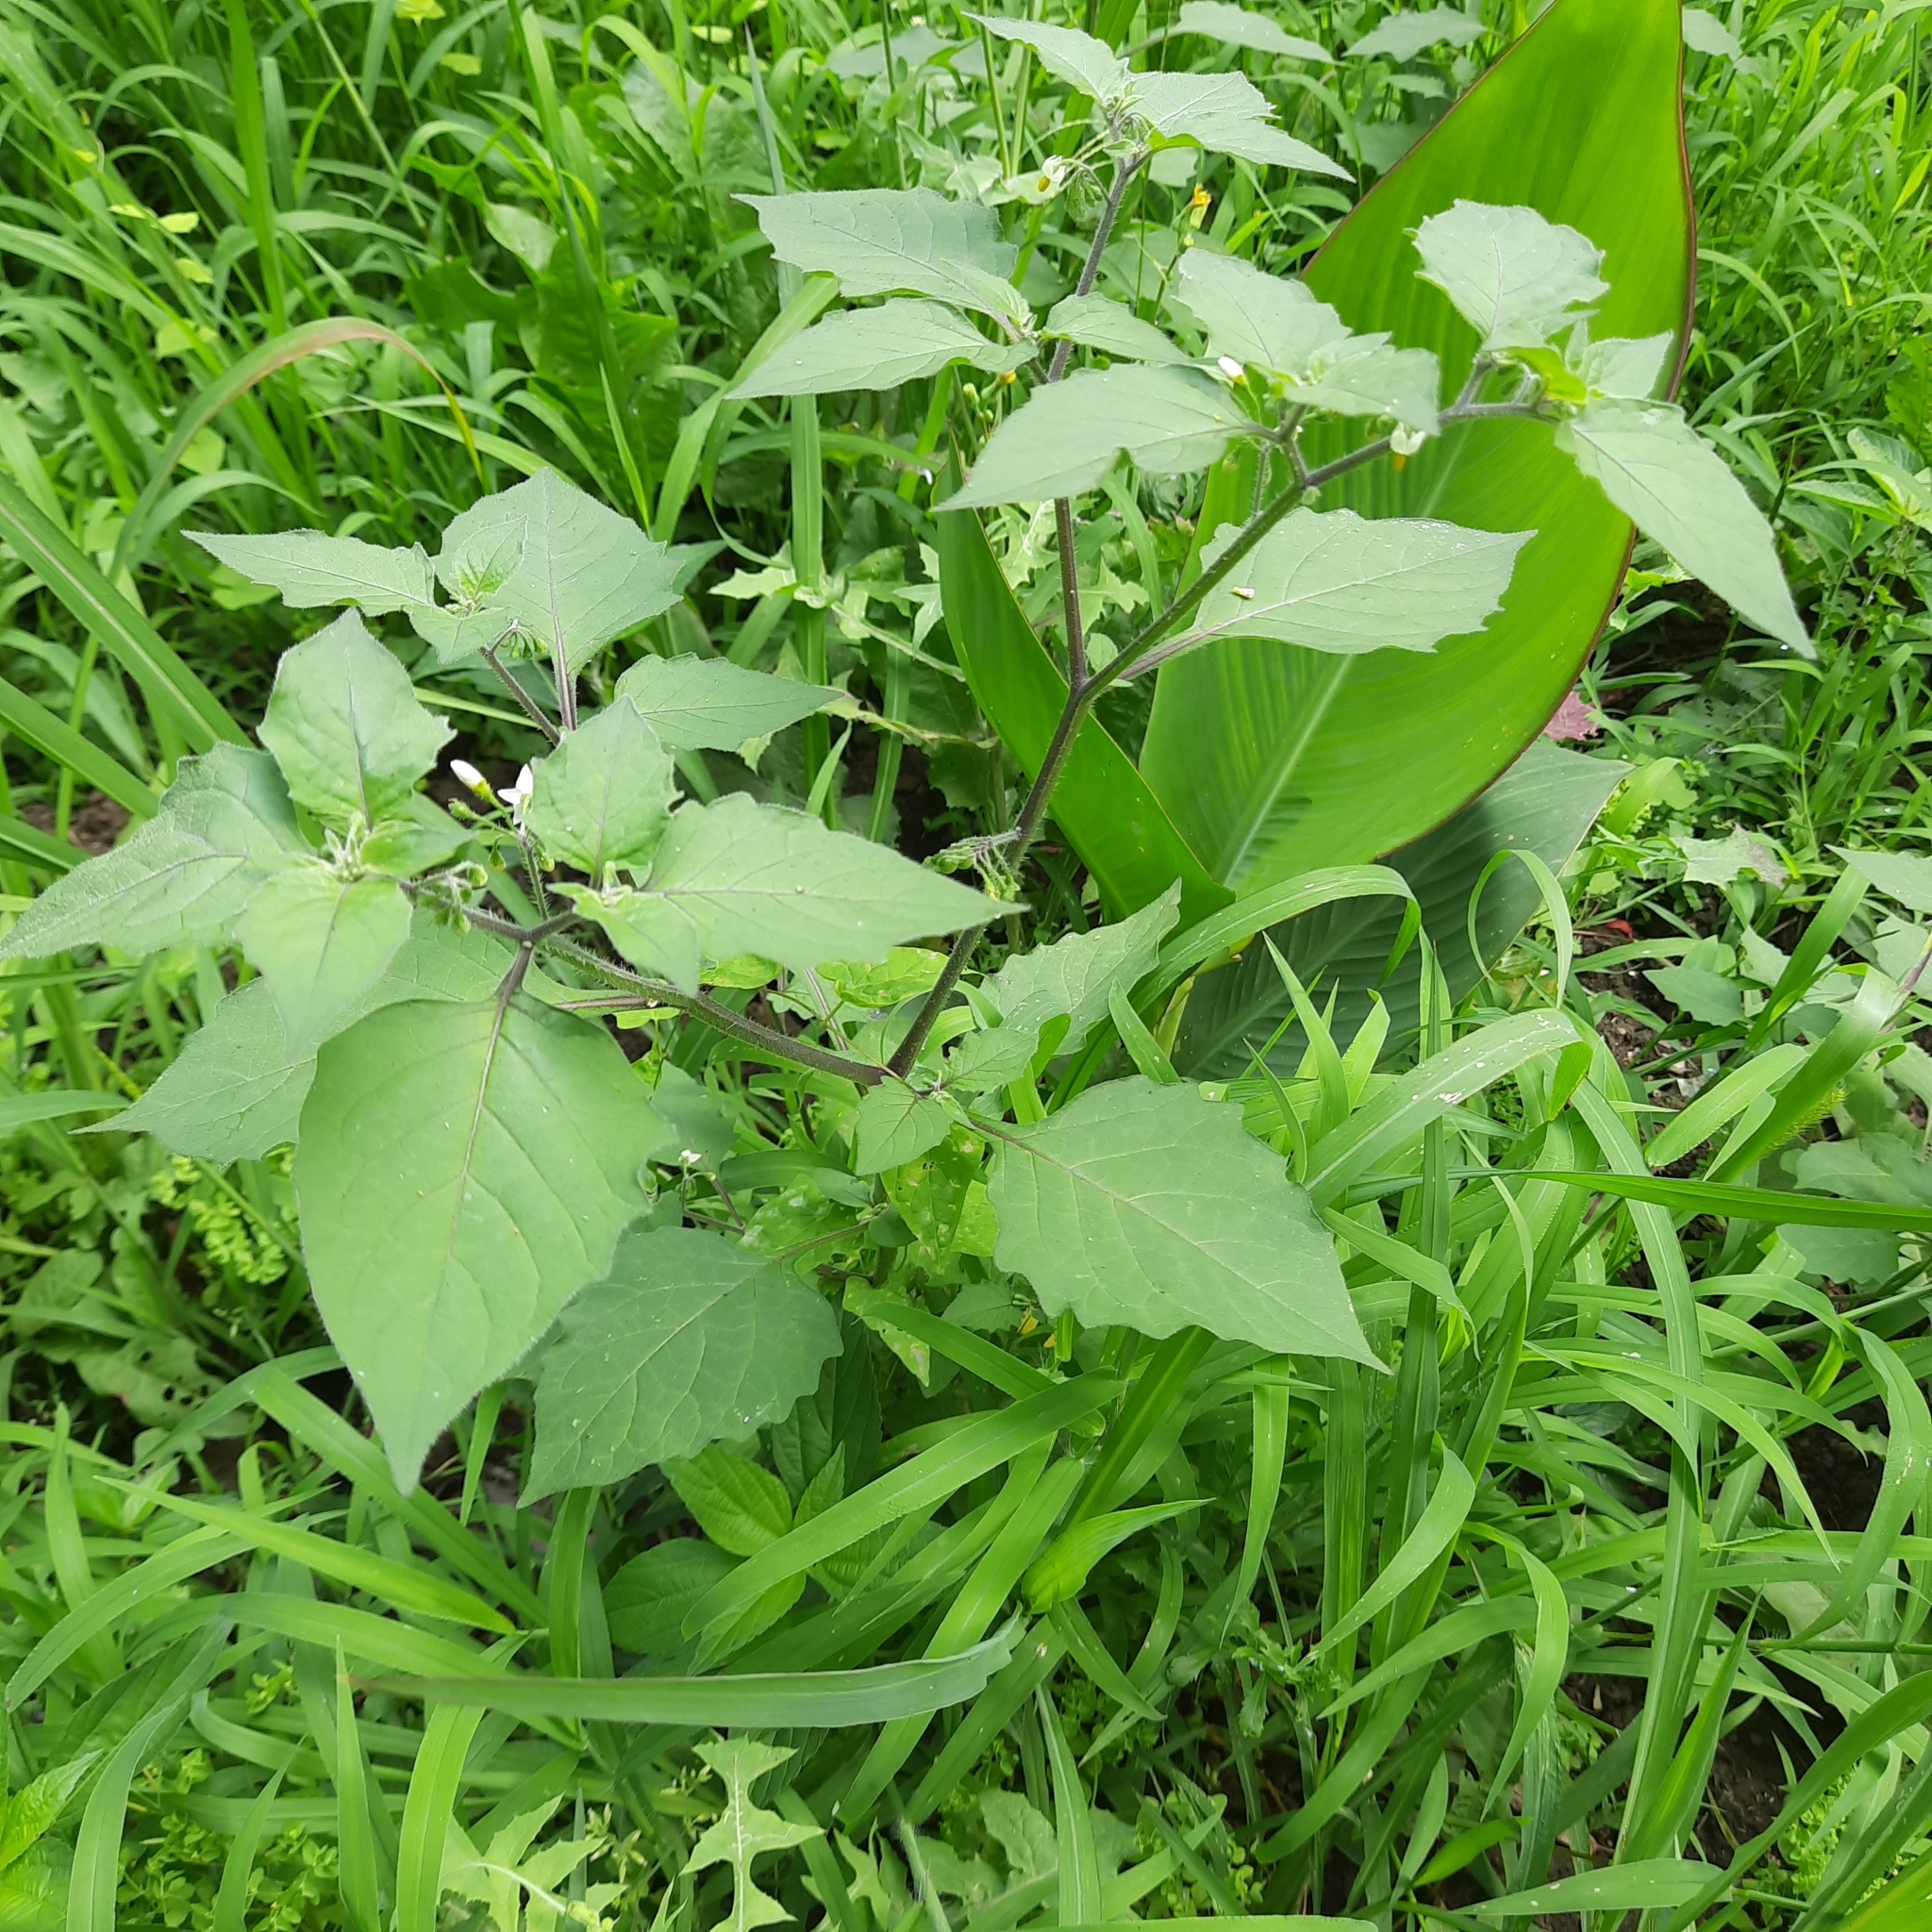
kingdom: Plantae
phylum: Tracheophyta
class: Magnoliopsida
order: Solanales
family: Solanaceae
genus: Solanum
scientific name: Solanum nigrum
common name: Black nightshade
